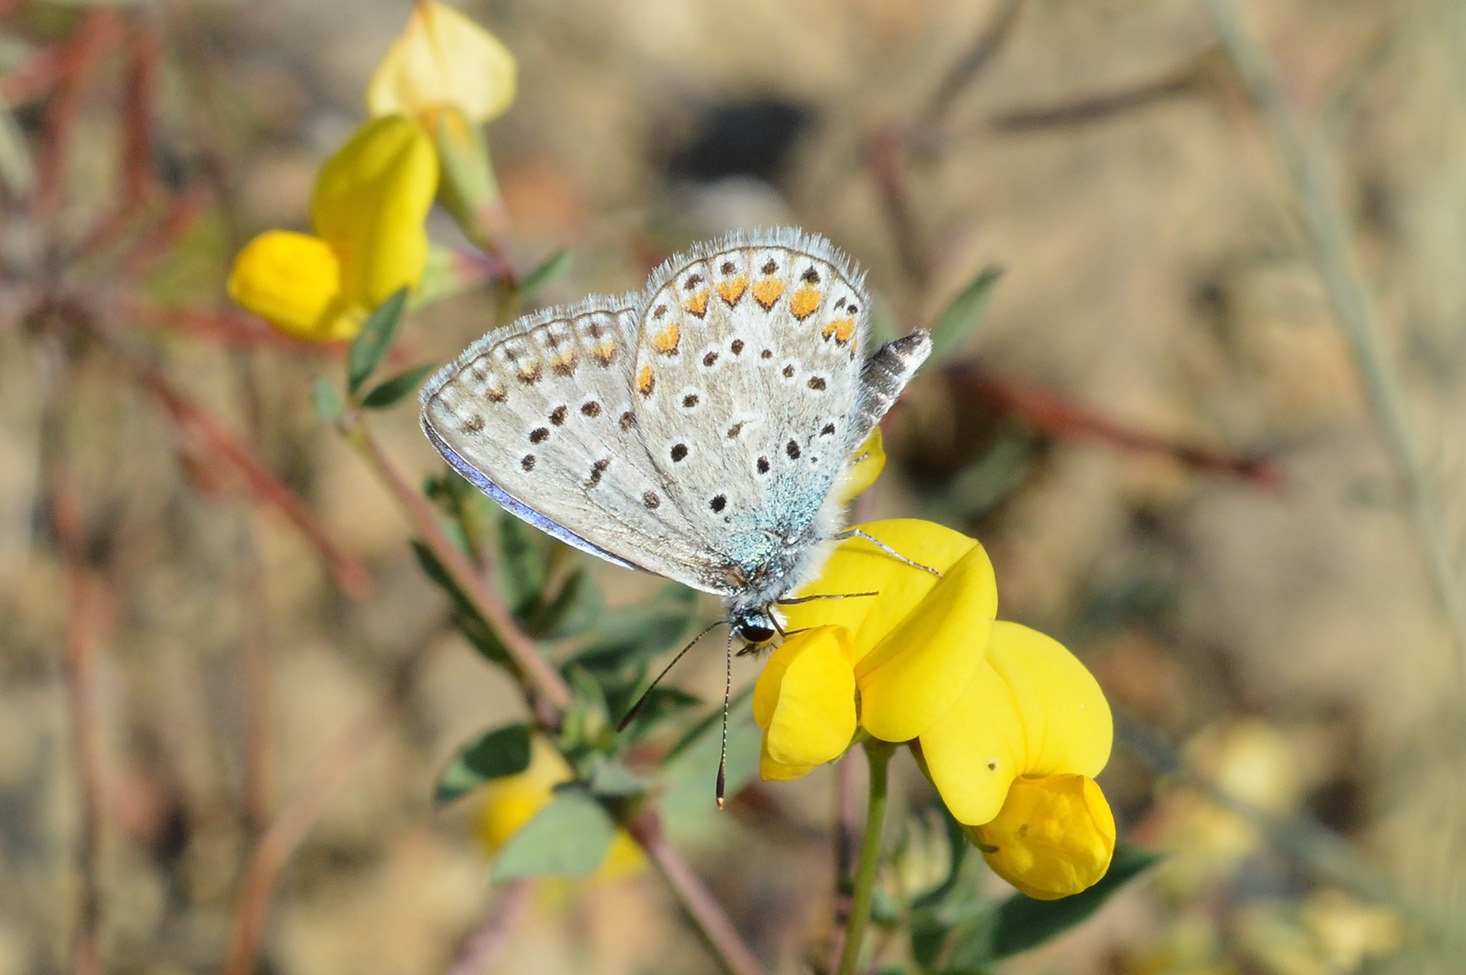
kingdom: Animalia
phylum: Arthropoda
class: Insecta
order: Lepidoptera
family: Lycaenidae
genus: Polyommatus
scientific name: Polyommatus icarus
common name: Common blue
